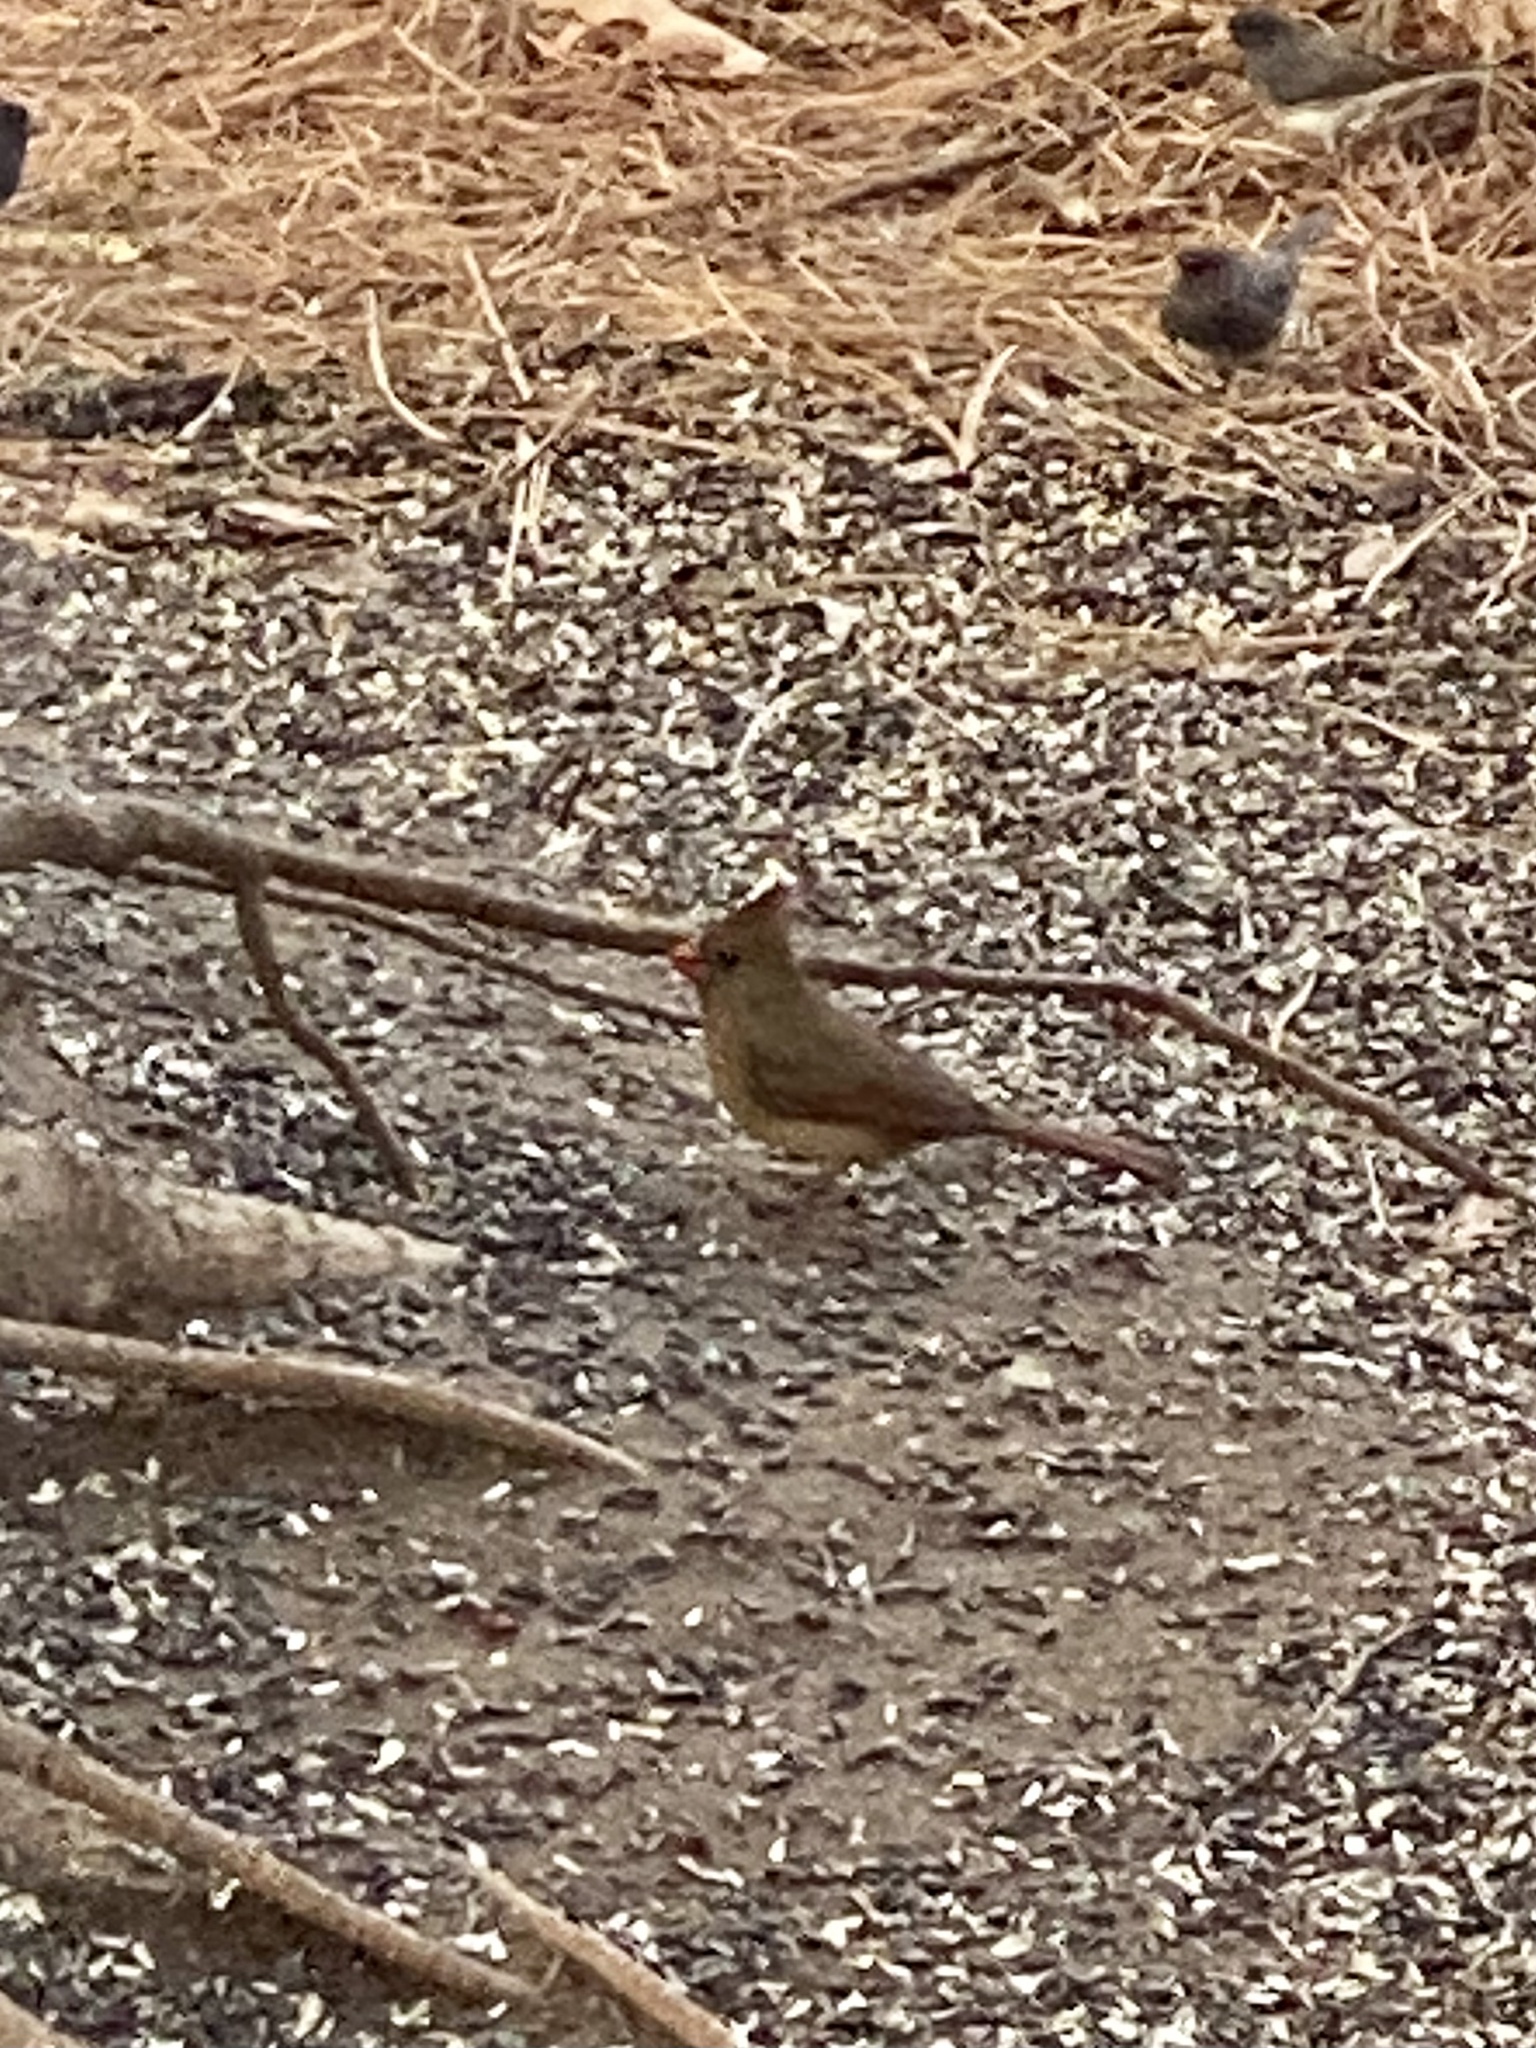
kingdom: Animalia
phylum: Chordata
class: Aves
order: Passeriformes
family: Cardinalidae
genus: Cardinalis
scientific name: Cardinalis cardinalis
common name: Northern cardinal
